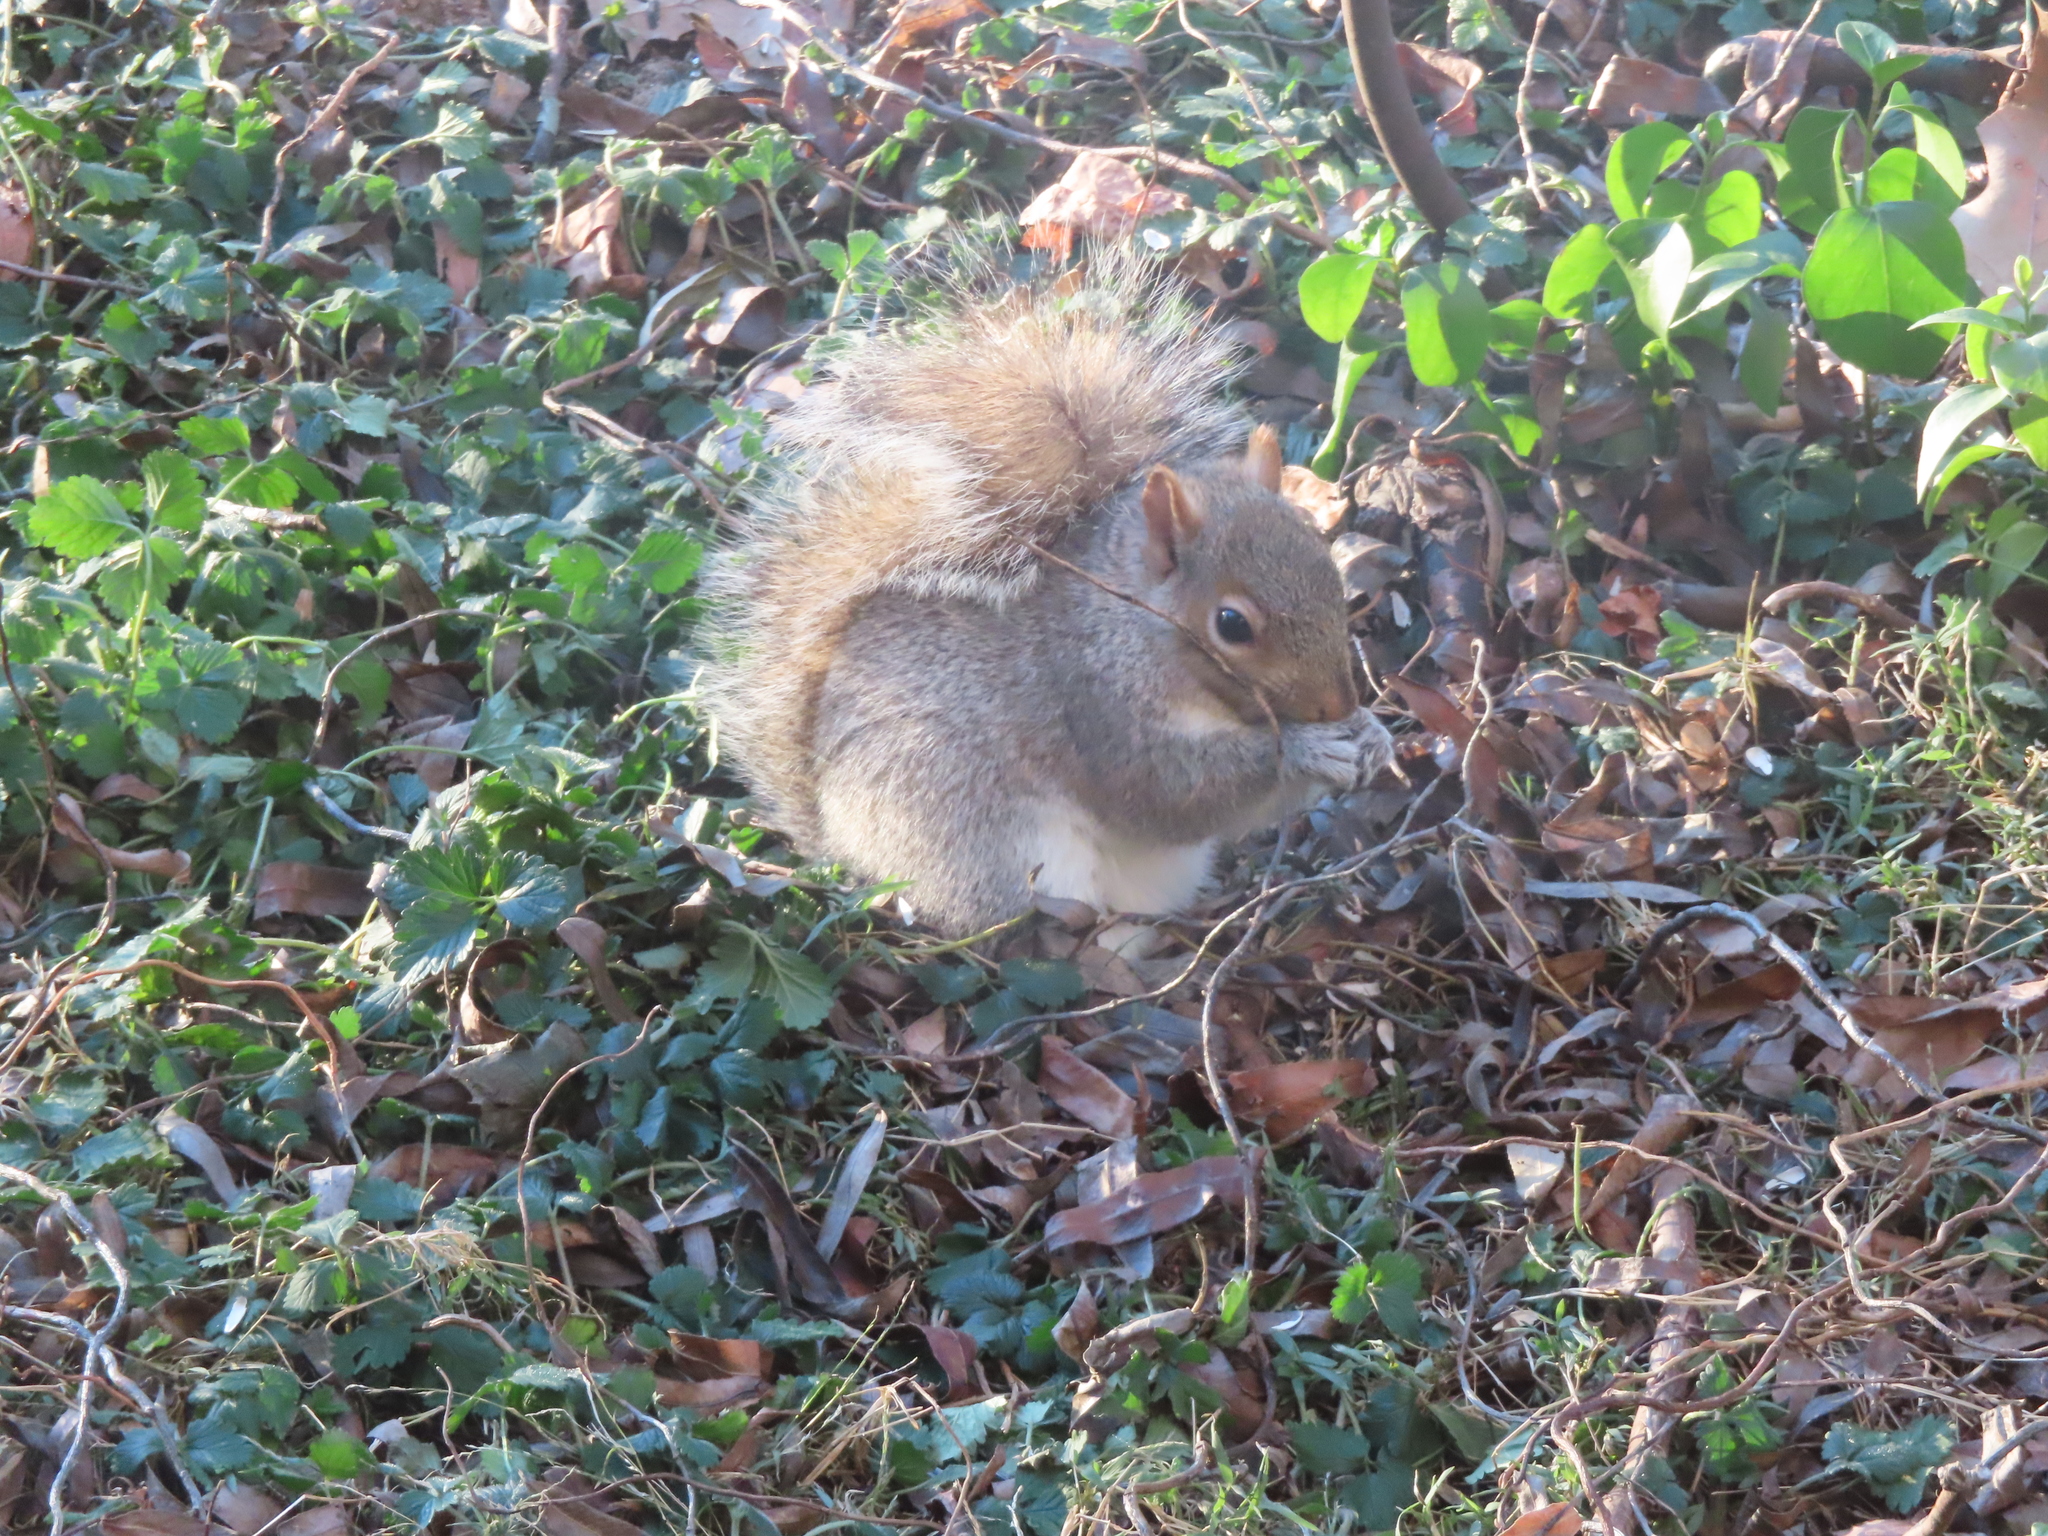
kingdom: Animalia
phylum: Chordata
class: Mammalia
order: Rodentia
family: Sciuridae
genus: Sciurus
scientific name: Sciurus carolinensis
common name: Eastern gray squirrel
